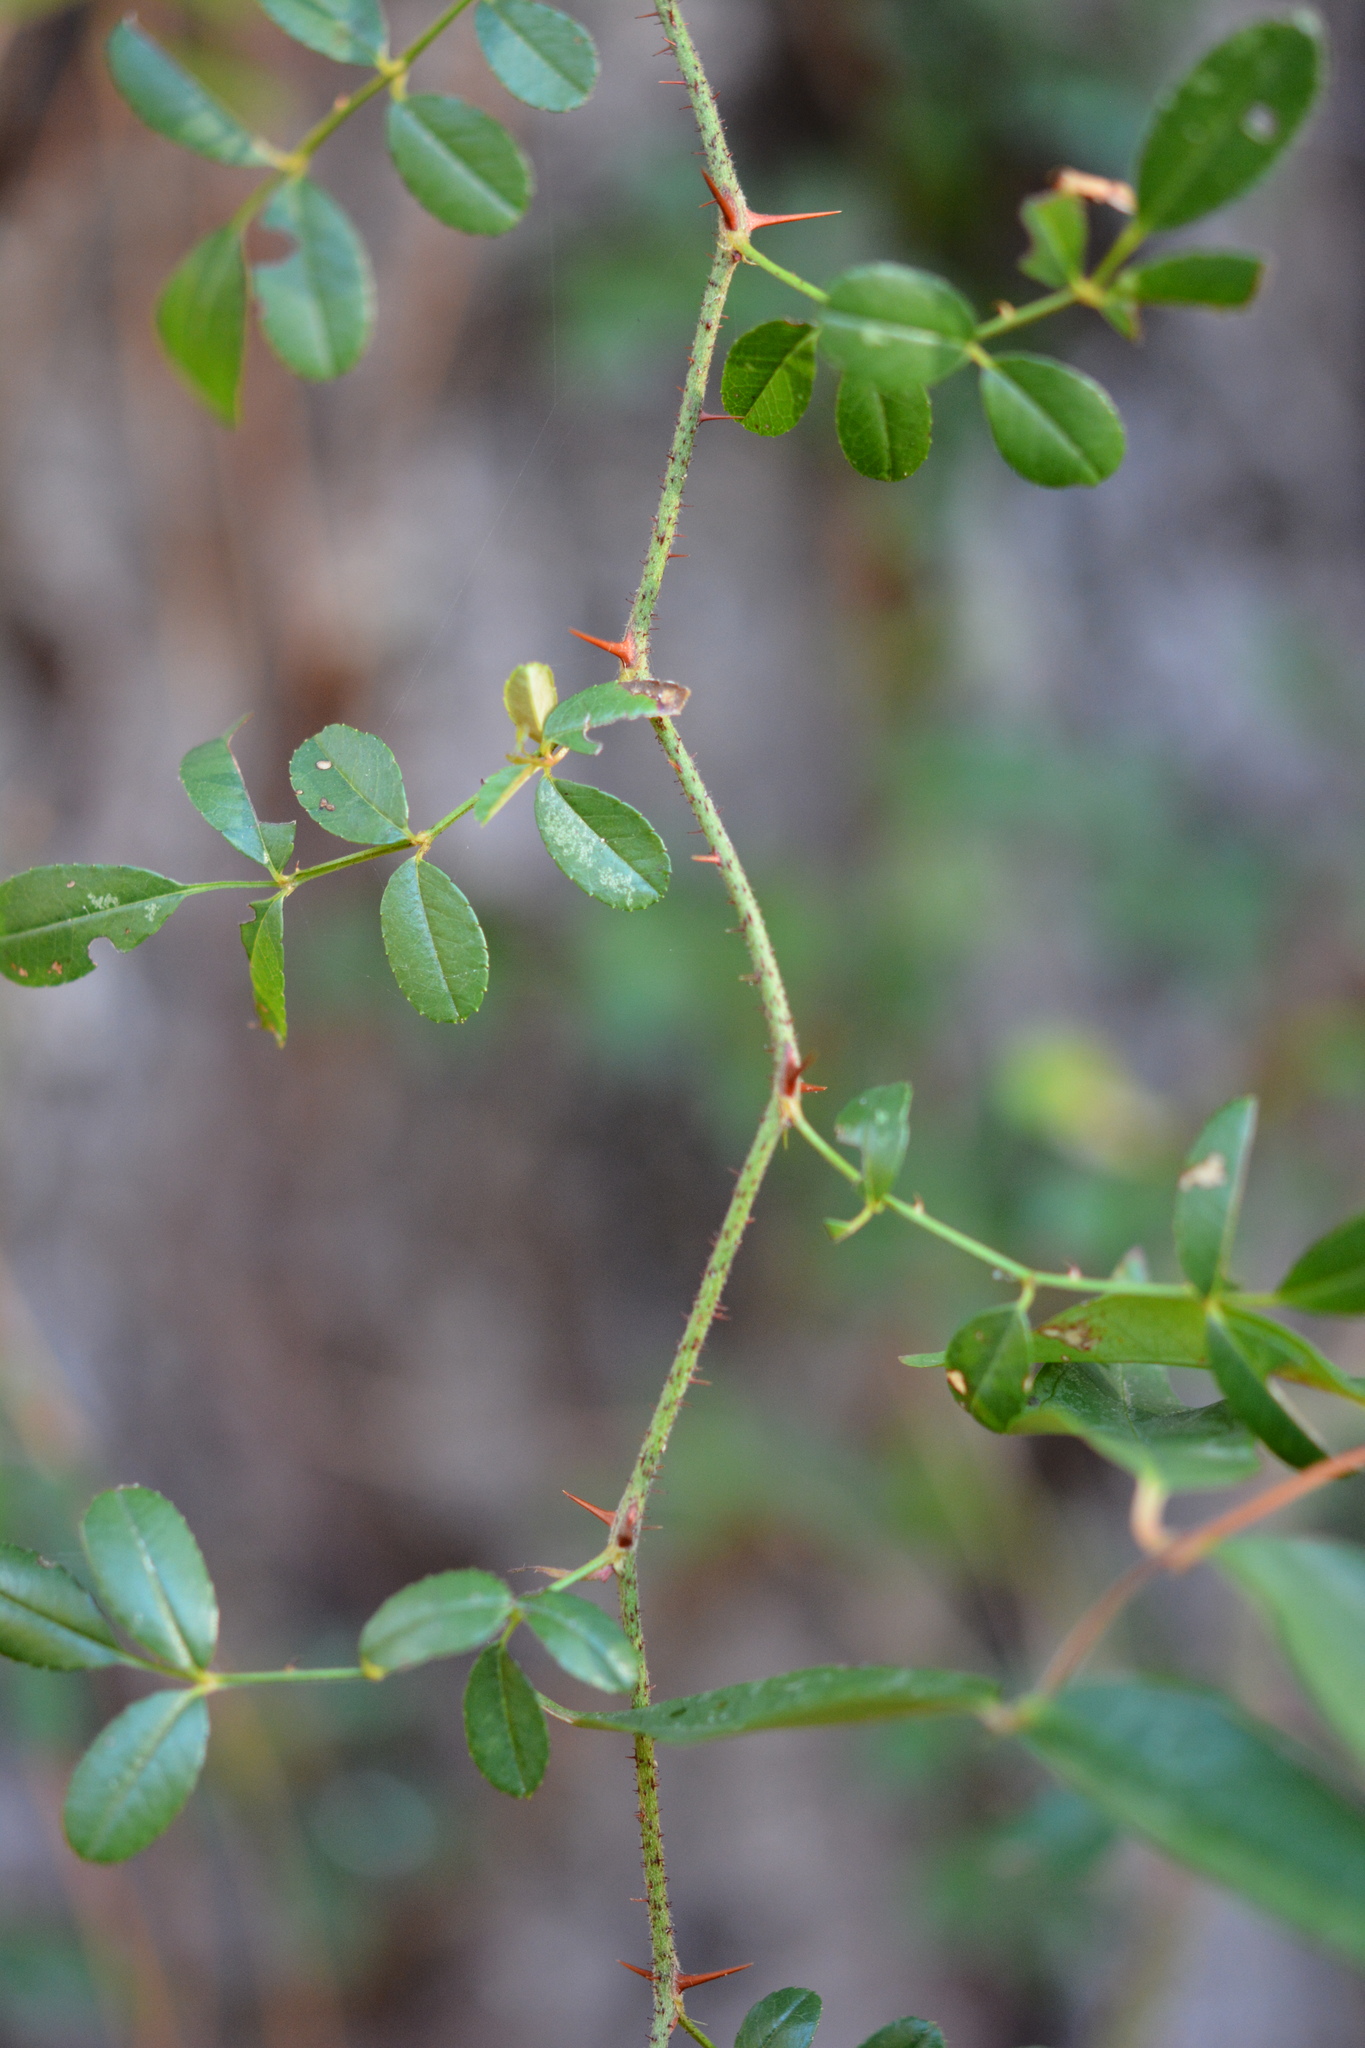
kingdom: Plantae
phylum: Tracheophyta
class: Magnoliopsida
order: Rosales
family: Rosaceae
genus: Rosa
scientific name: Rosa bracteata
